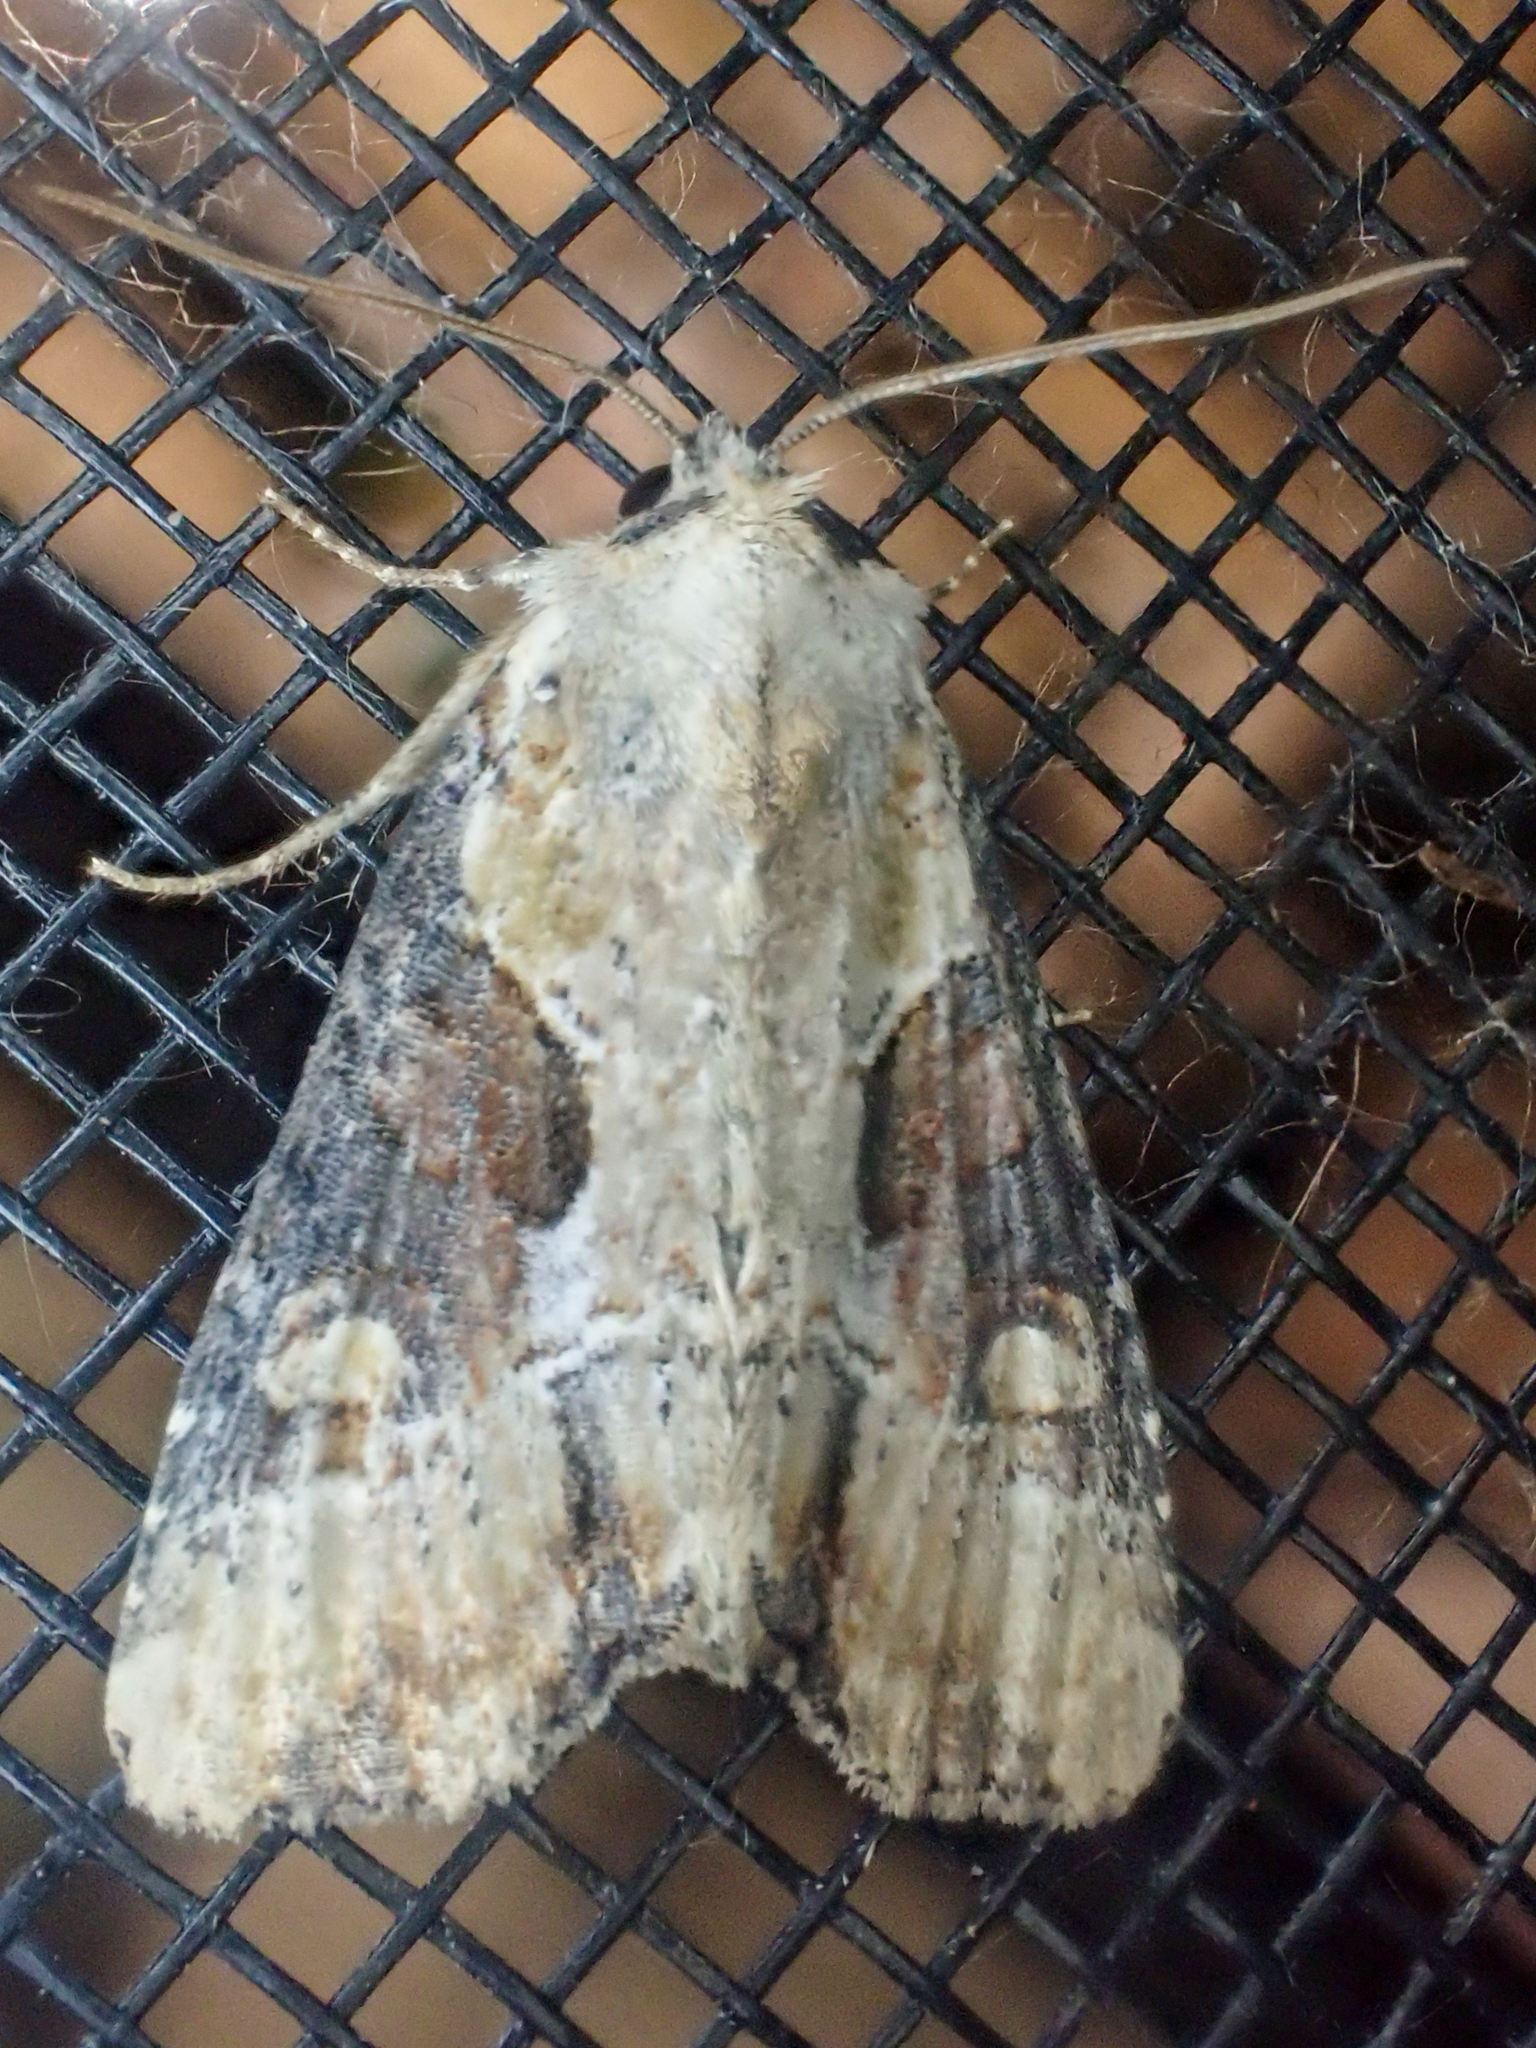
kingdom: Animalia
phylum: Arthropoda
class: Insecta
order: Lepidoptera
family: Noctuidae
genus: Lateroligia
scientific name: Lateroligia ophiogramma
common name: Double lobed
